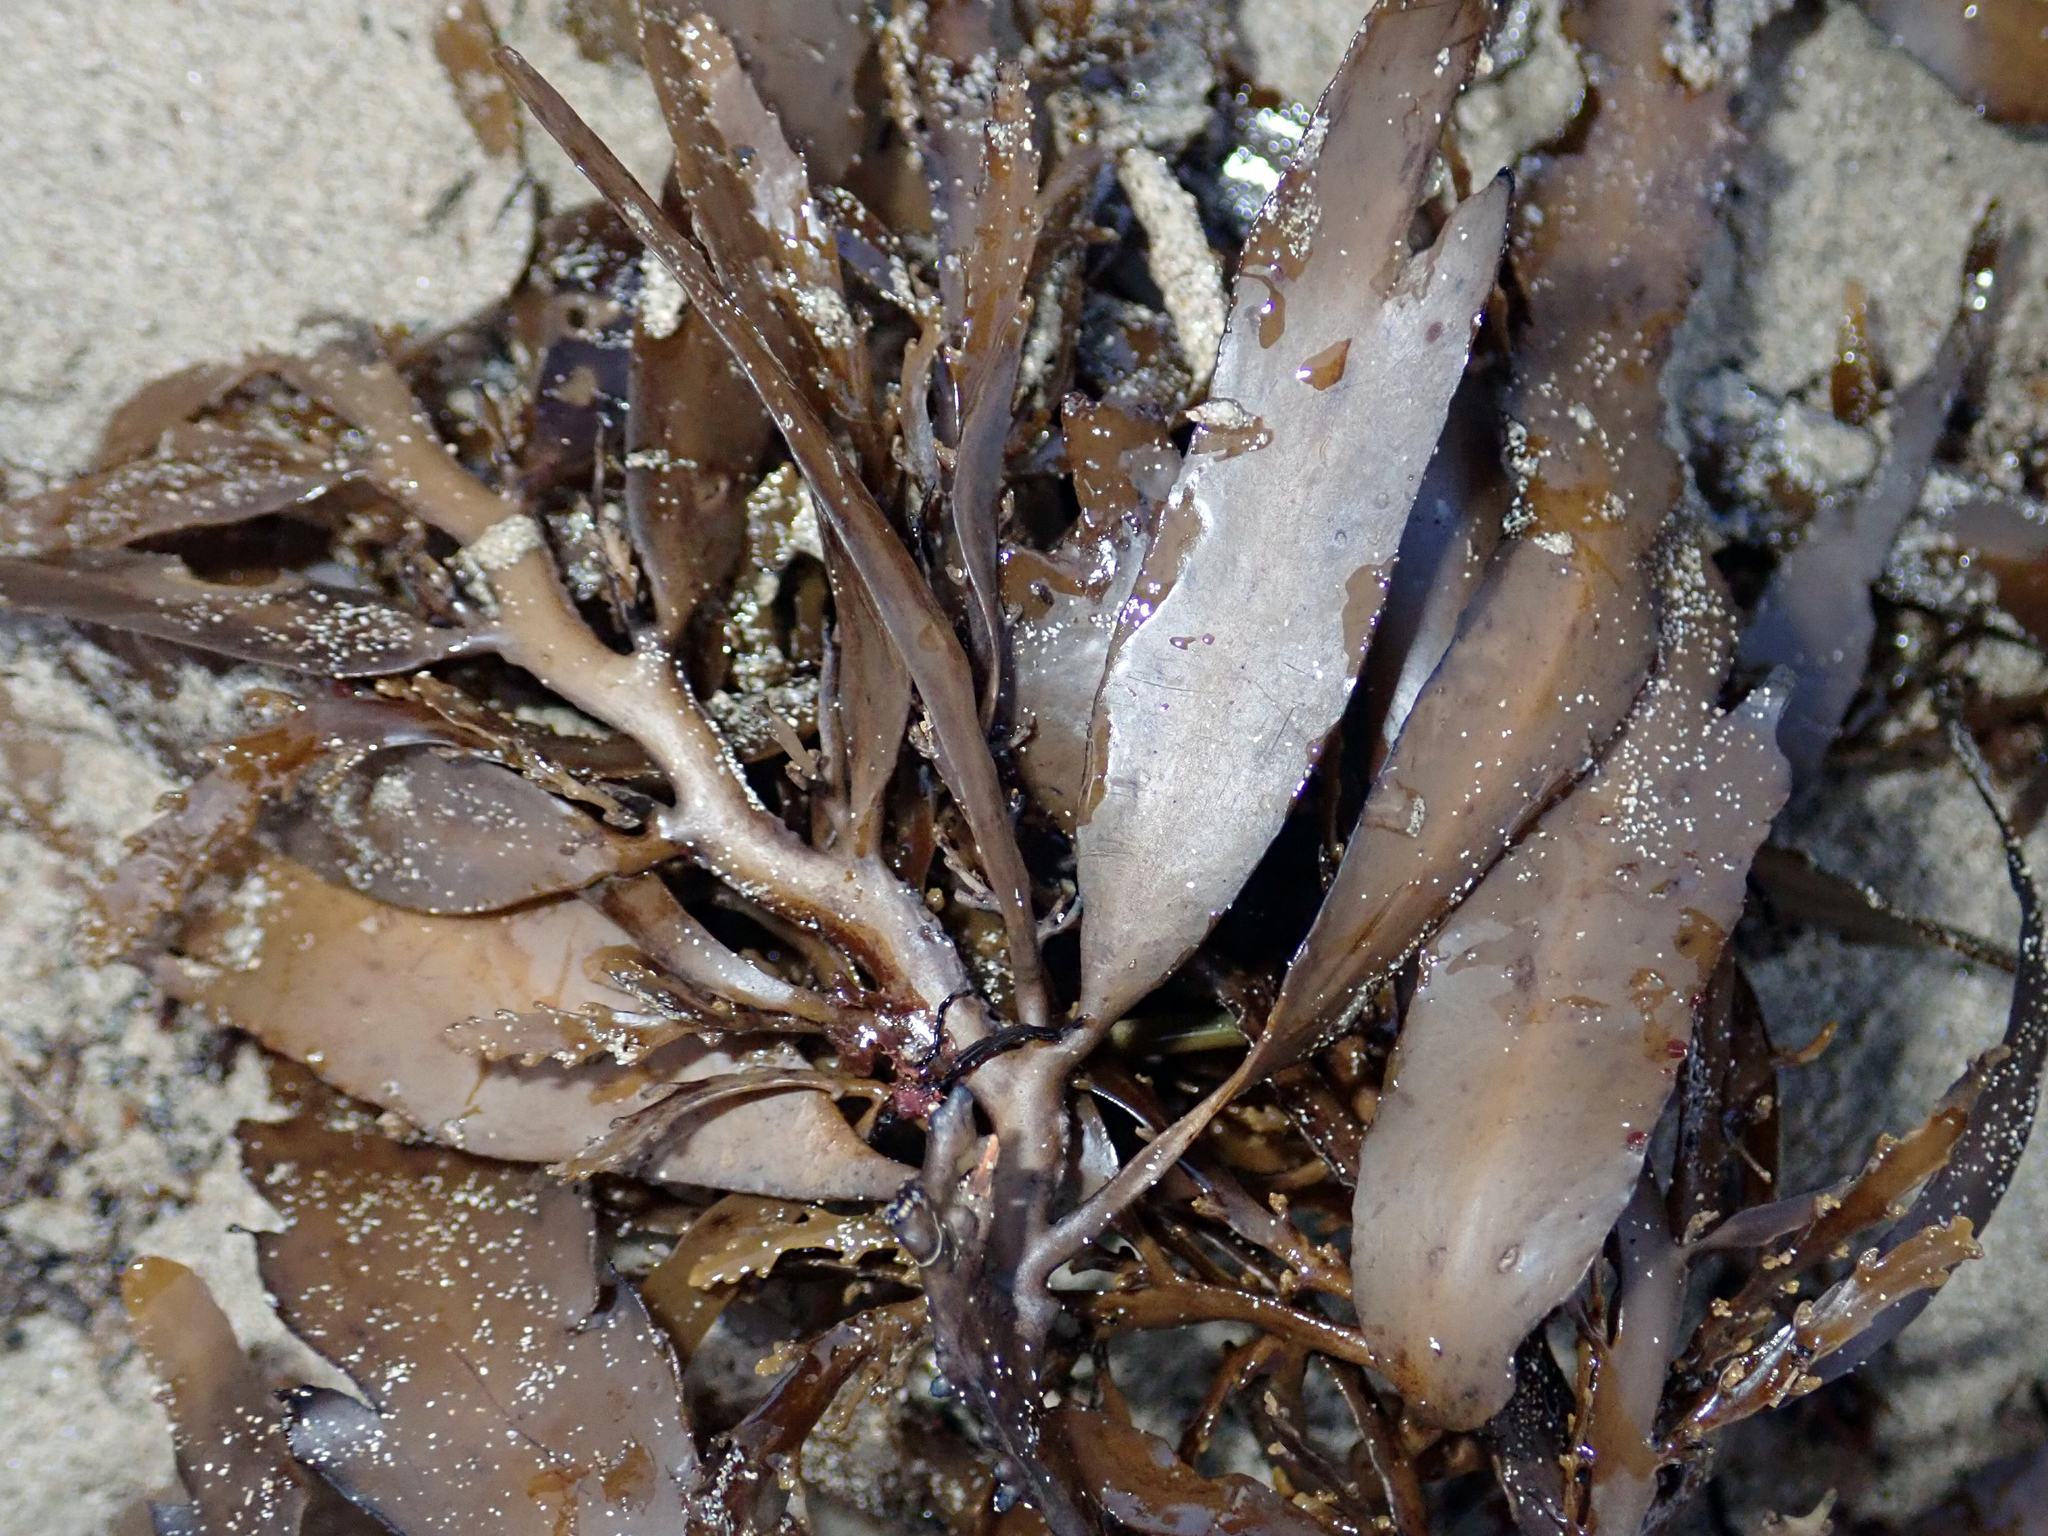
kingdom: Chromista
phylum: Ochrophyta
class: Phaeophyceae
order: Fucales
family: Sargassaceae
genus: Carpophyllum
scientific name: Carpophyllum flexuosum
